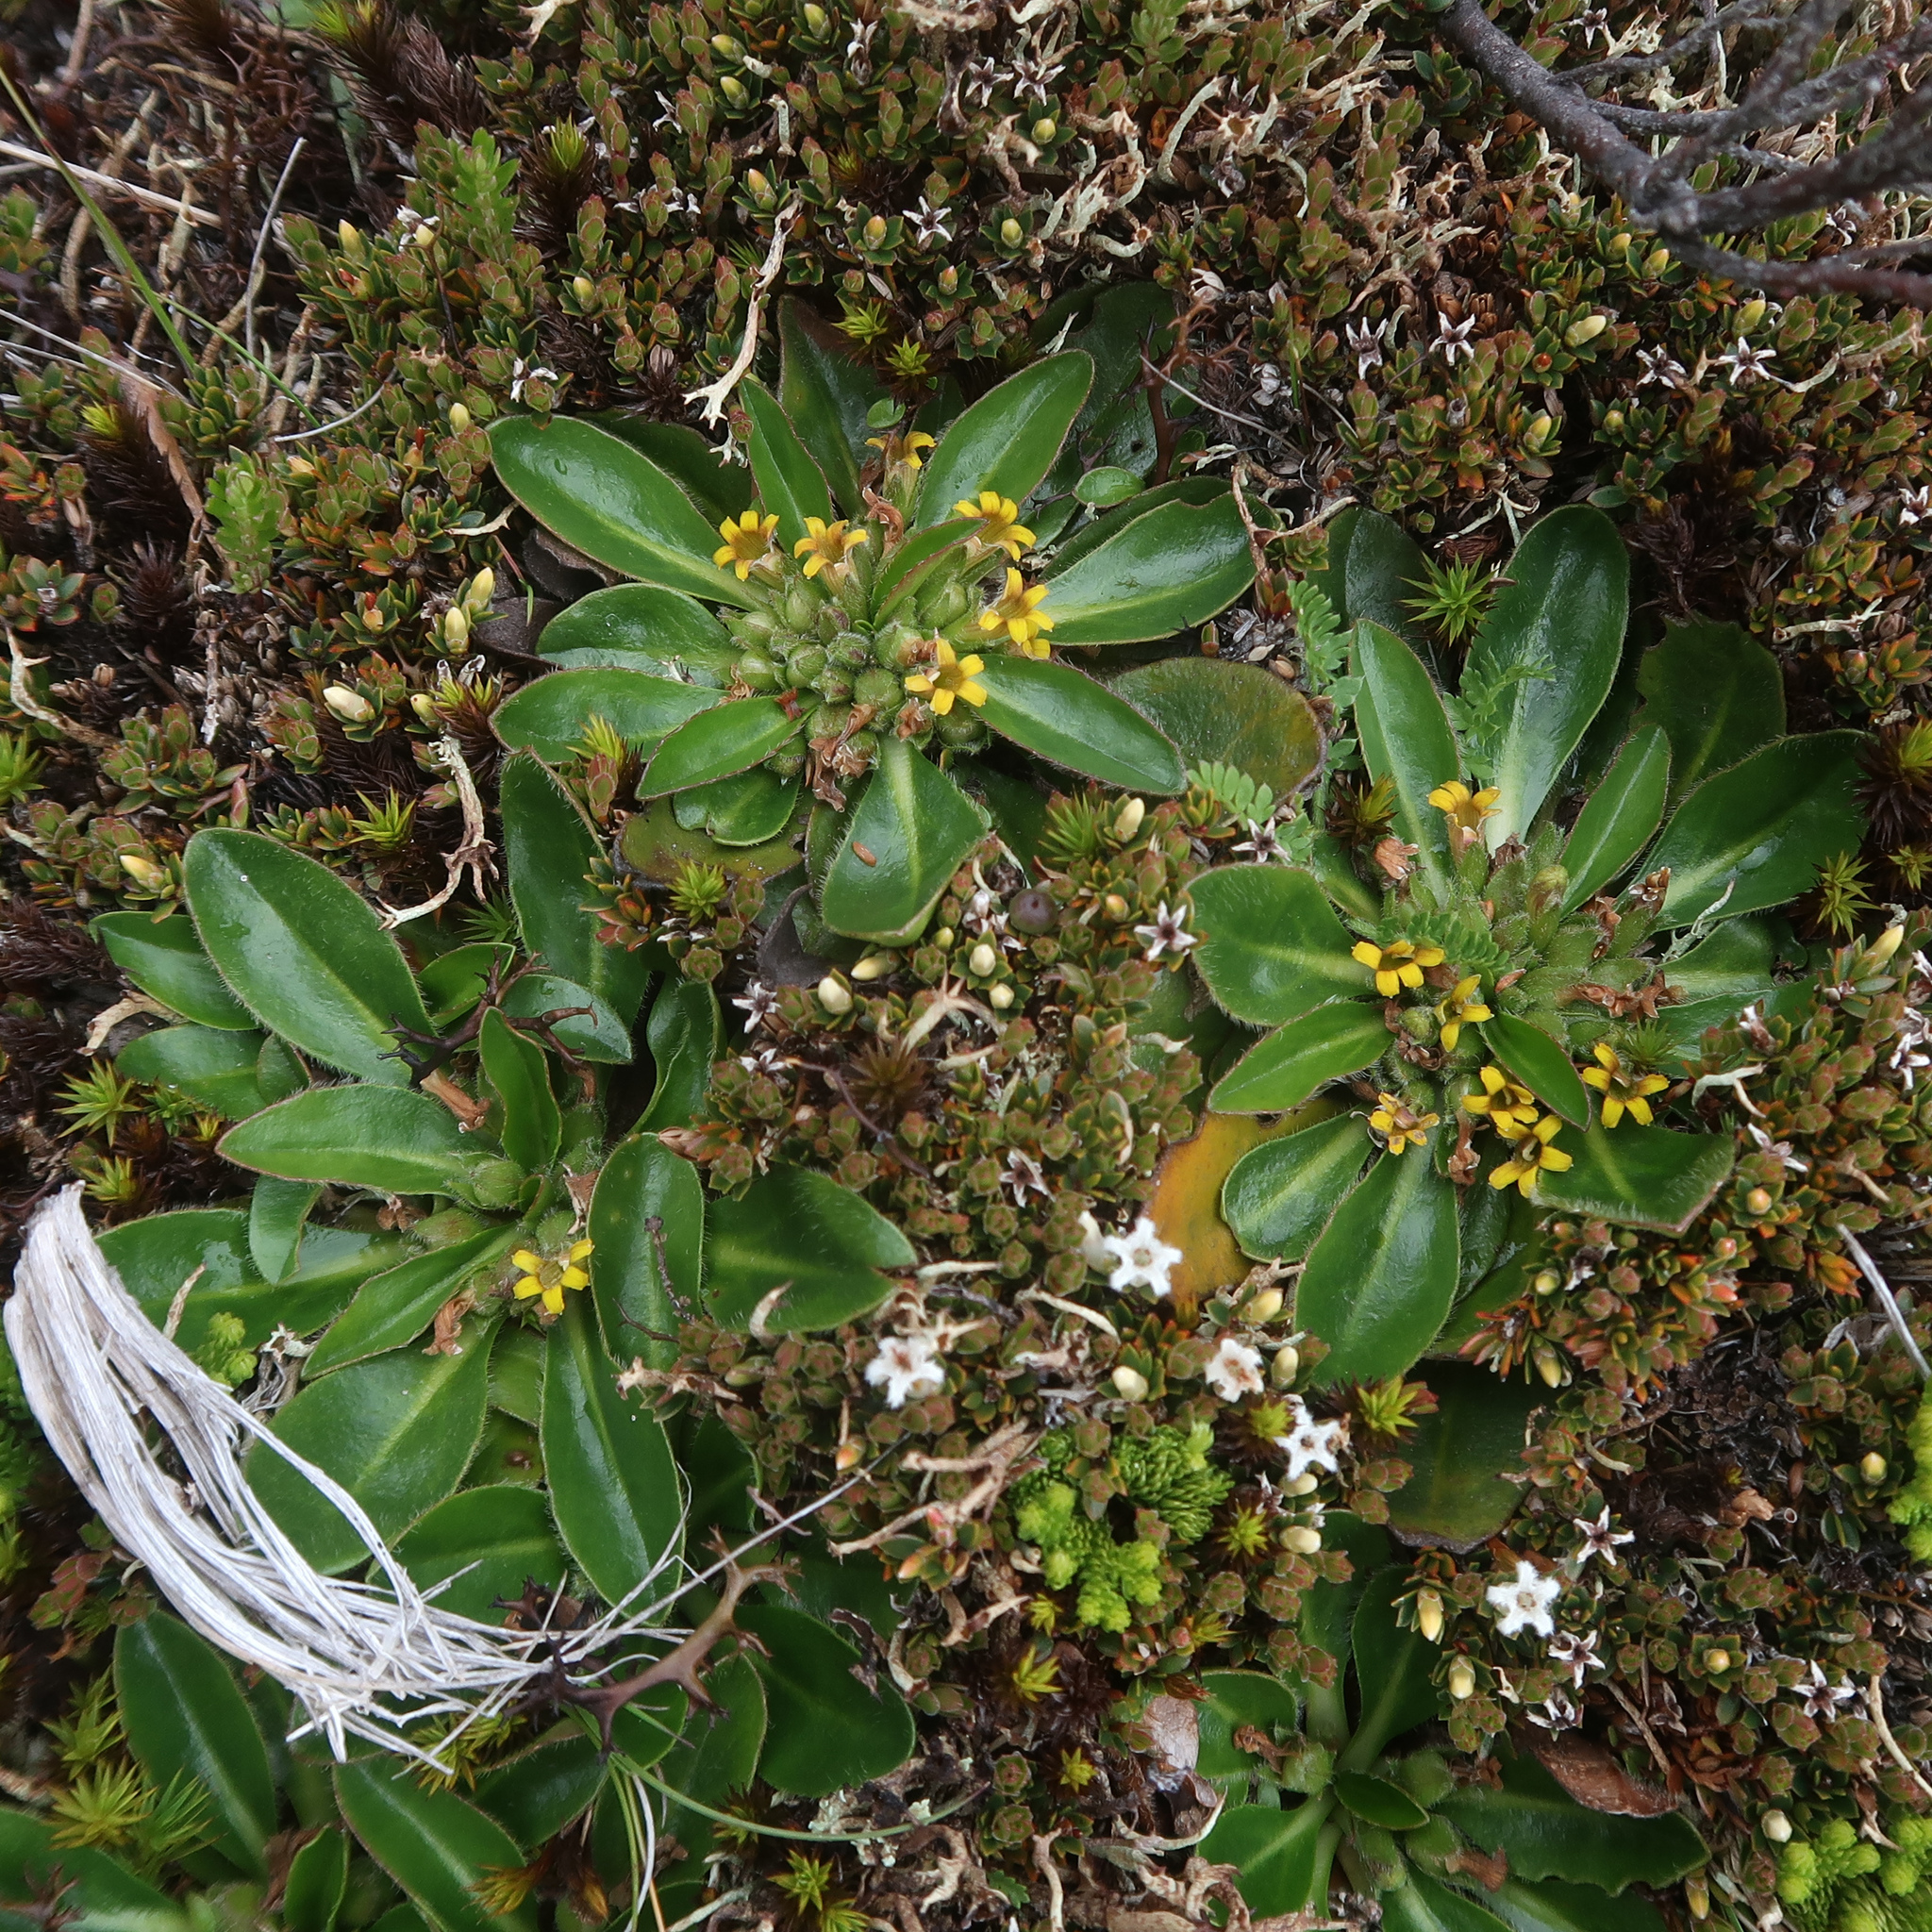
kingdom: Plantae
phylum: Tracheophyta
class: Magnoliopsida
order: Asterales
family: Goodeniaceae
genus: Goodenia
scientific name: Goodenia montana
